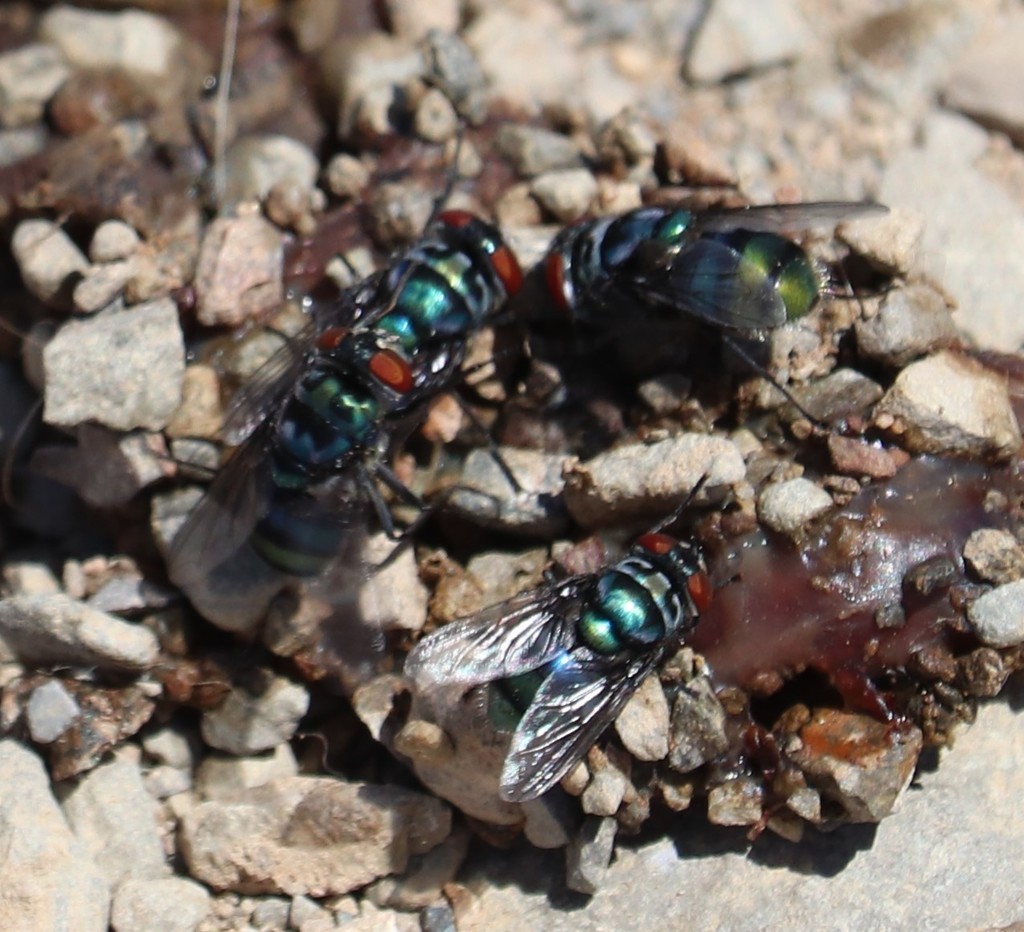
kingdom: Animalia
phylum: Arthropoda
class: Insecta
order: Diptera
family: Calliphoridae
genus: Chrysomya
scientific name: Chrysomya chloropyga
